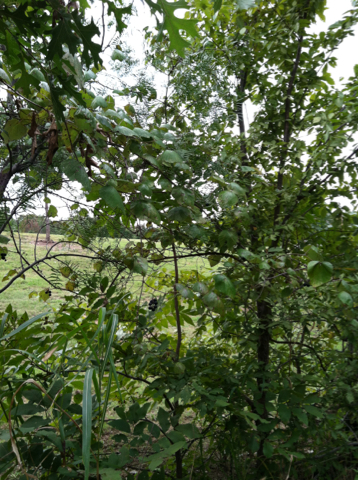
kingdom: Plantae
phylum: Tracheophyta
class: Magnoliopsida
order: Vitales
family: Vitaceae
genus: Vitis
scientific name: Vitis mustangensis
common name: Mustang grape
